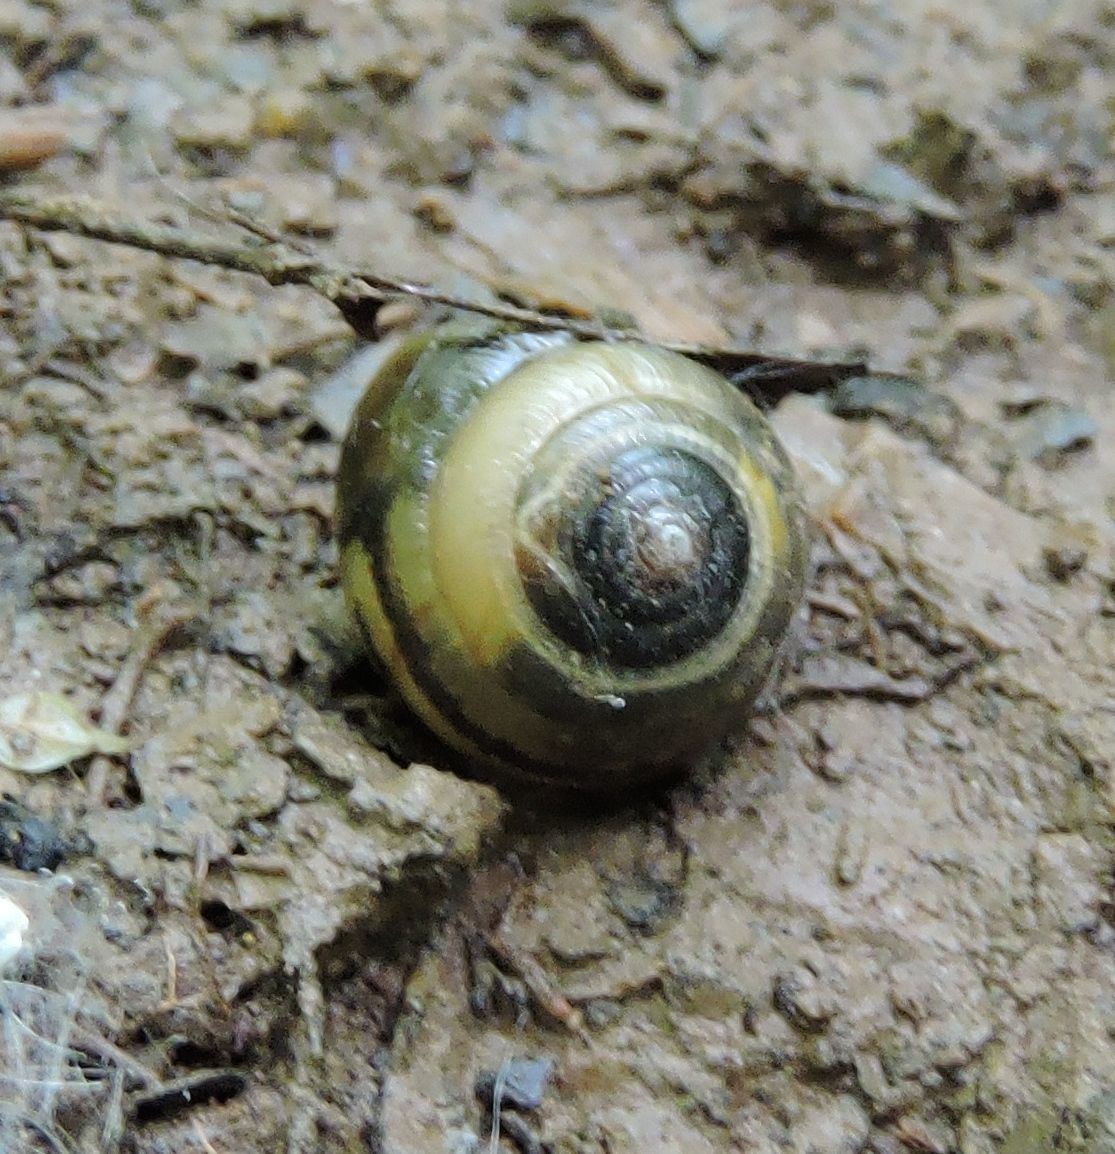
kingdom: Animalia
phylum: Mollusca
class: Gastropoda
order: Stylommatophora
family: Gastrodontidae
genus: Ventridens
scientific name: Ventridens demissus
